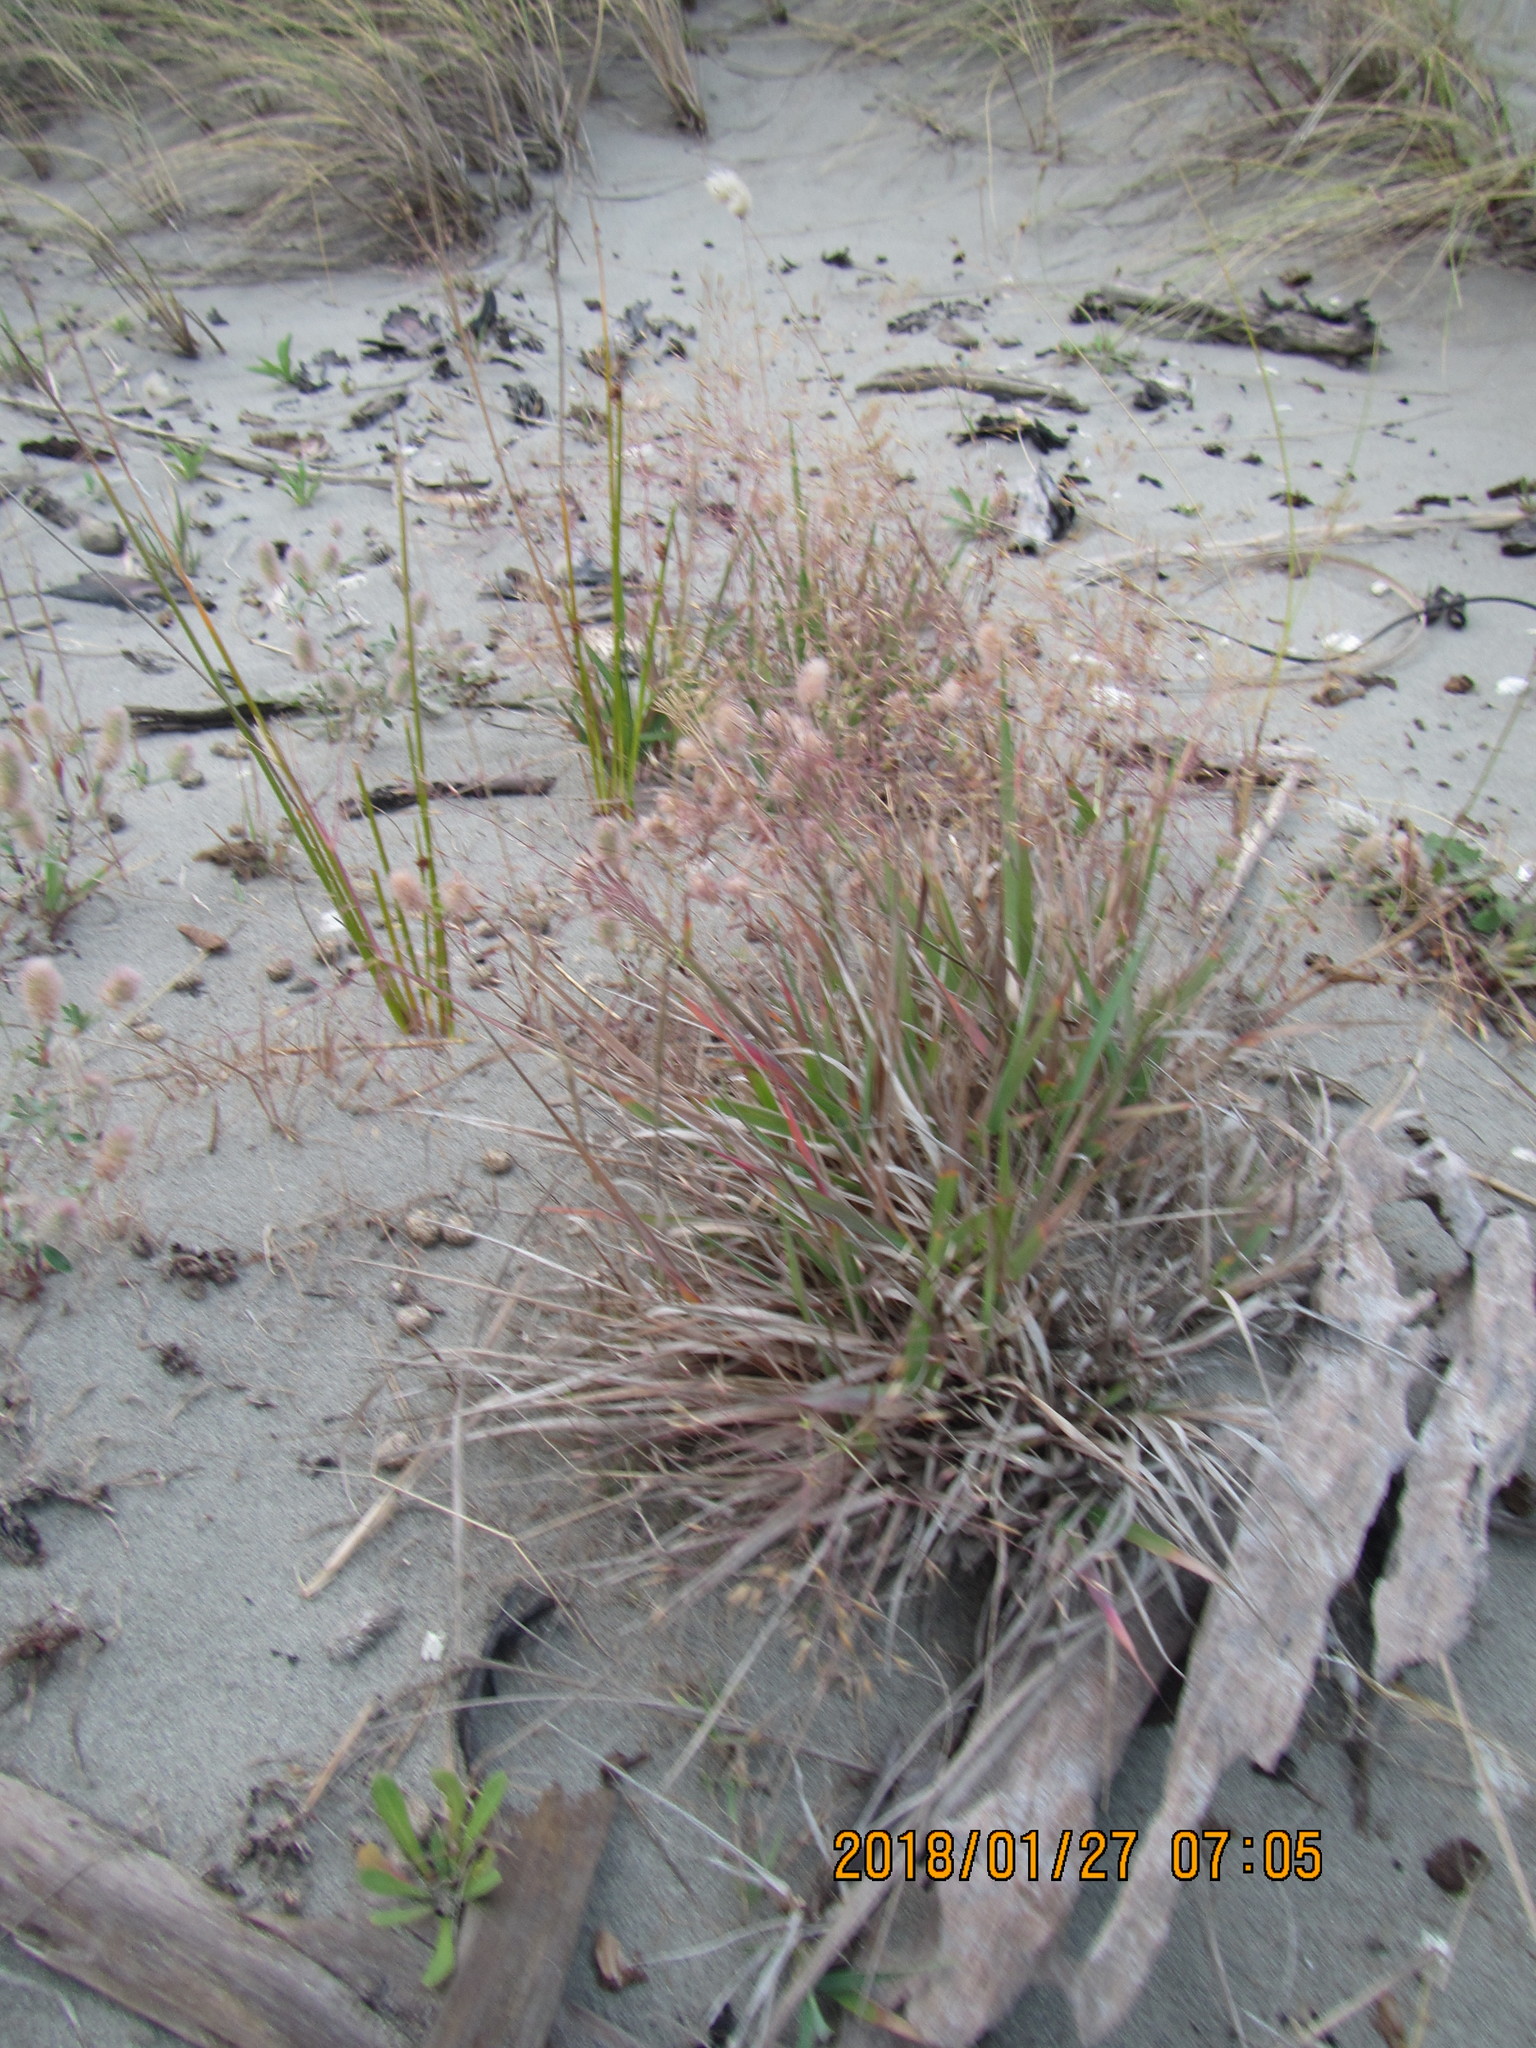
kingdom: Plantae
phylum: Tracheophyta
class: Liliopsida
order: Poales
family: Poaceae
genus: Lachnagrostis
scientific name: Lachnagrostis billardierei
